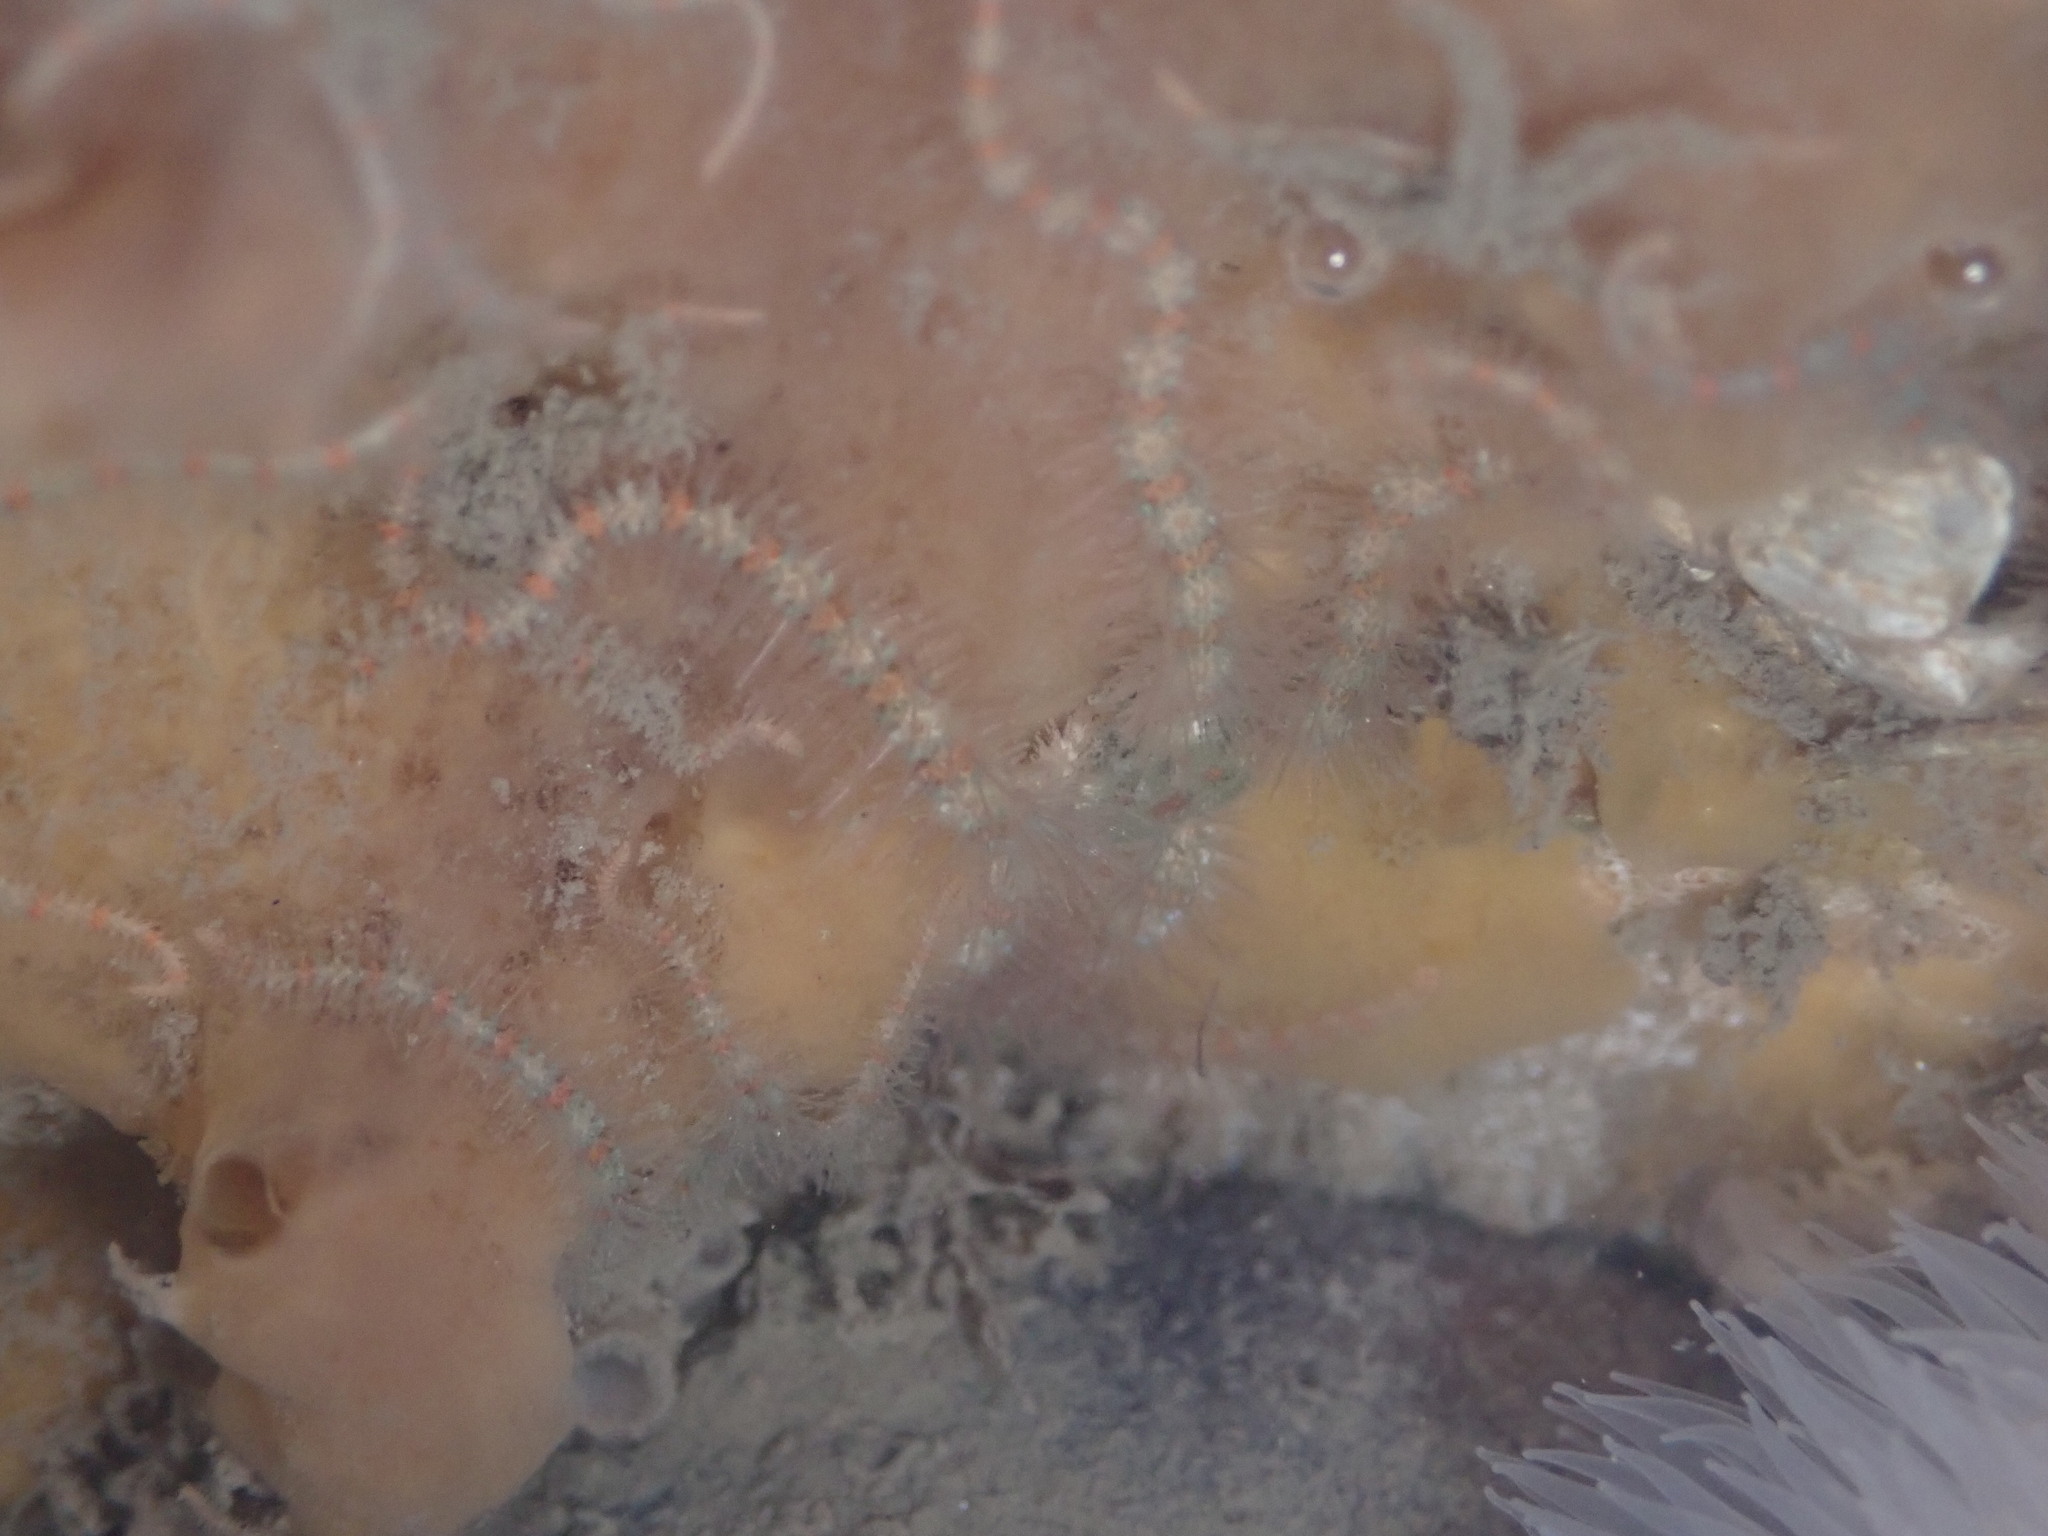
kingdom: Animalia
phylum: Echinodermata
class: Ophiuroidea
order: Amphilepidida
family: Ophiotrichidae
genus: Ophiothrix
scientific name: Ophiothrix spiculata
